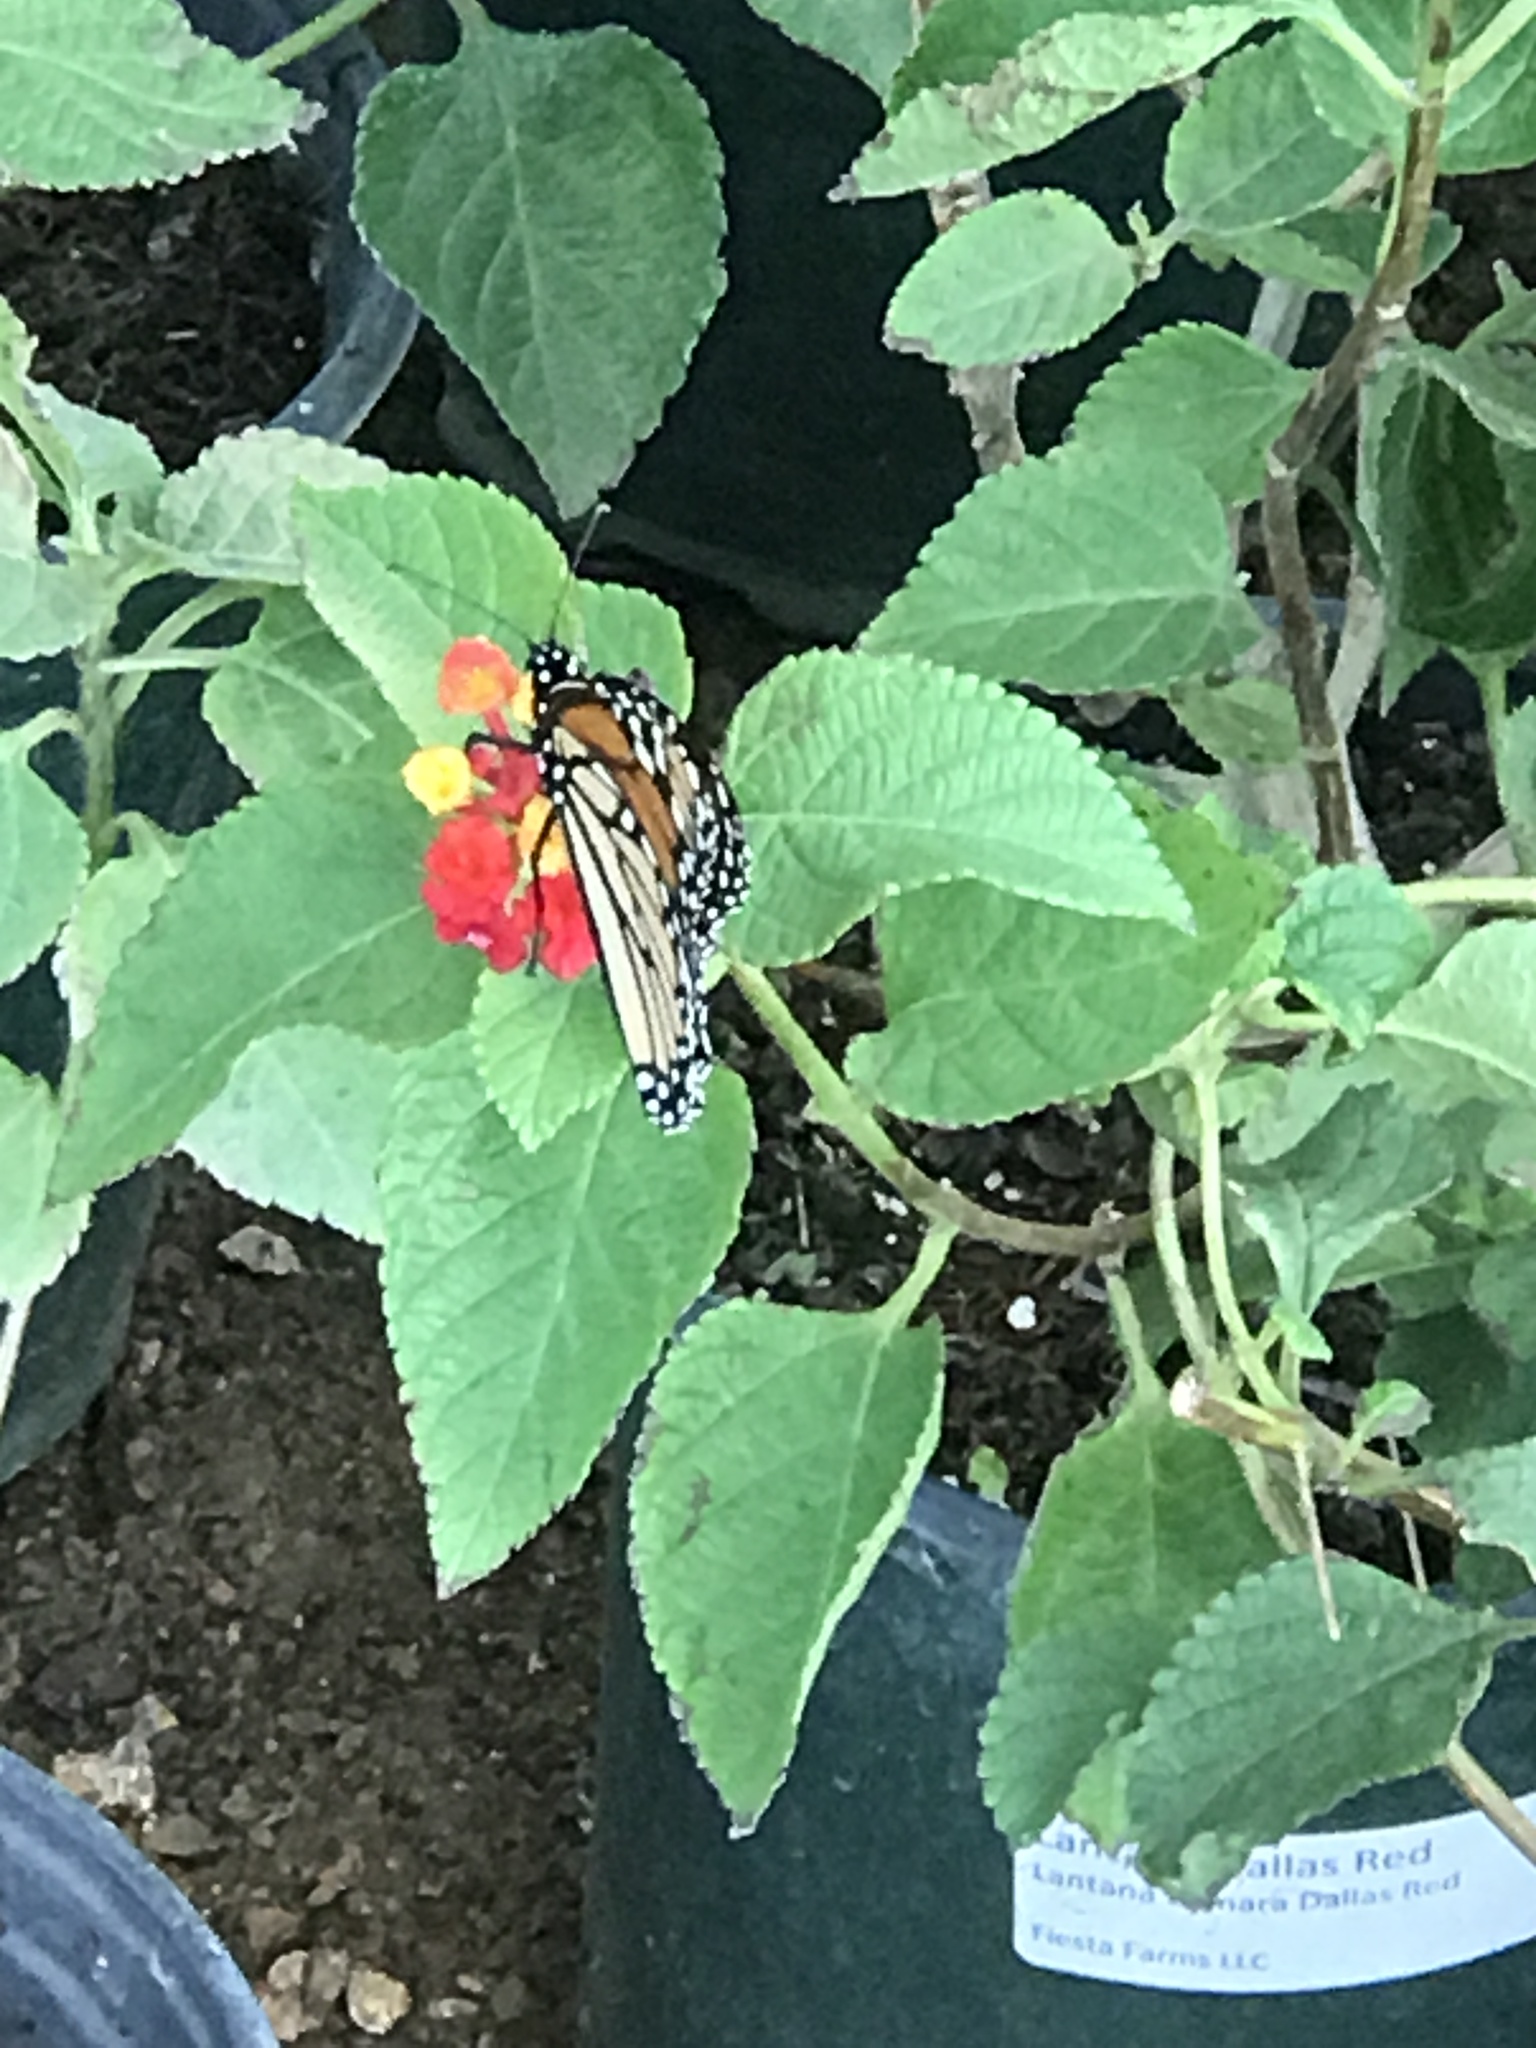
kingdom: Animalia
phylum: Arthropoda
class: Insecta
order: Lepidoptera
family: Nymphalidae
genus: Danaus
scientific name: Danaus plexippus
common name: Monarch
